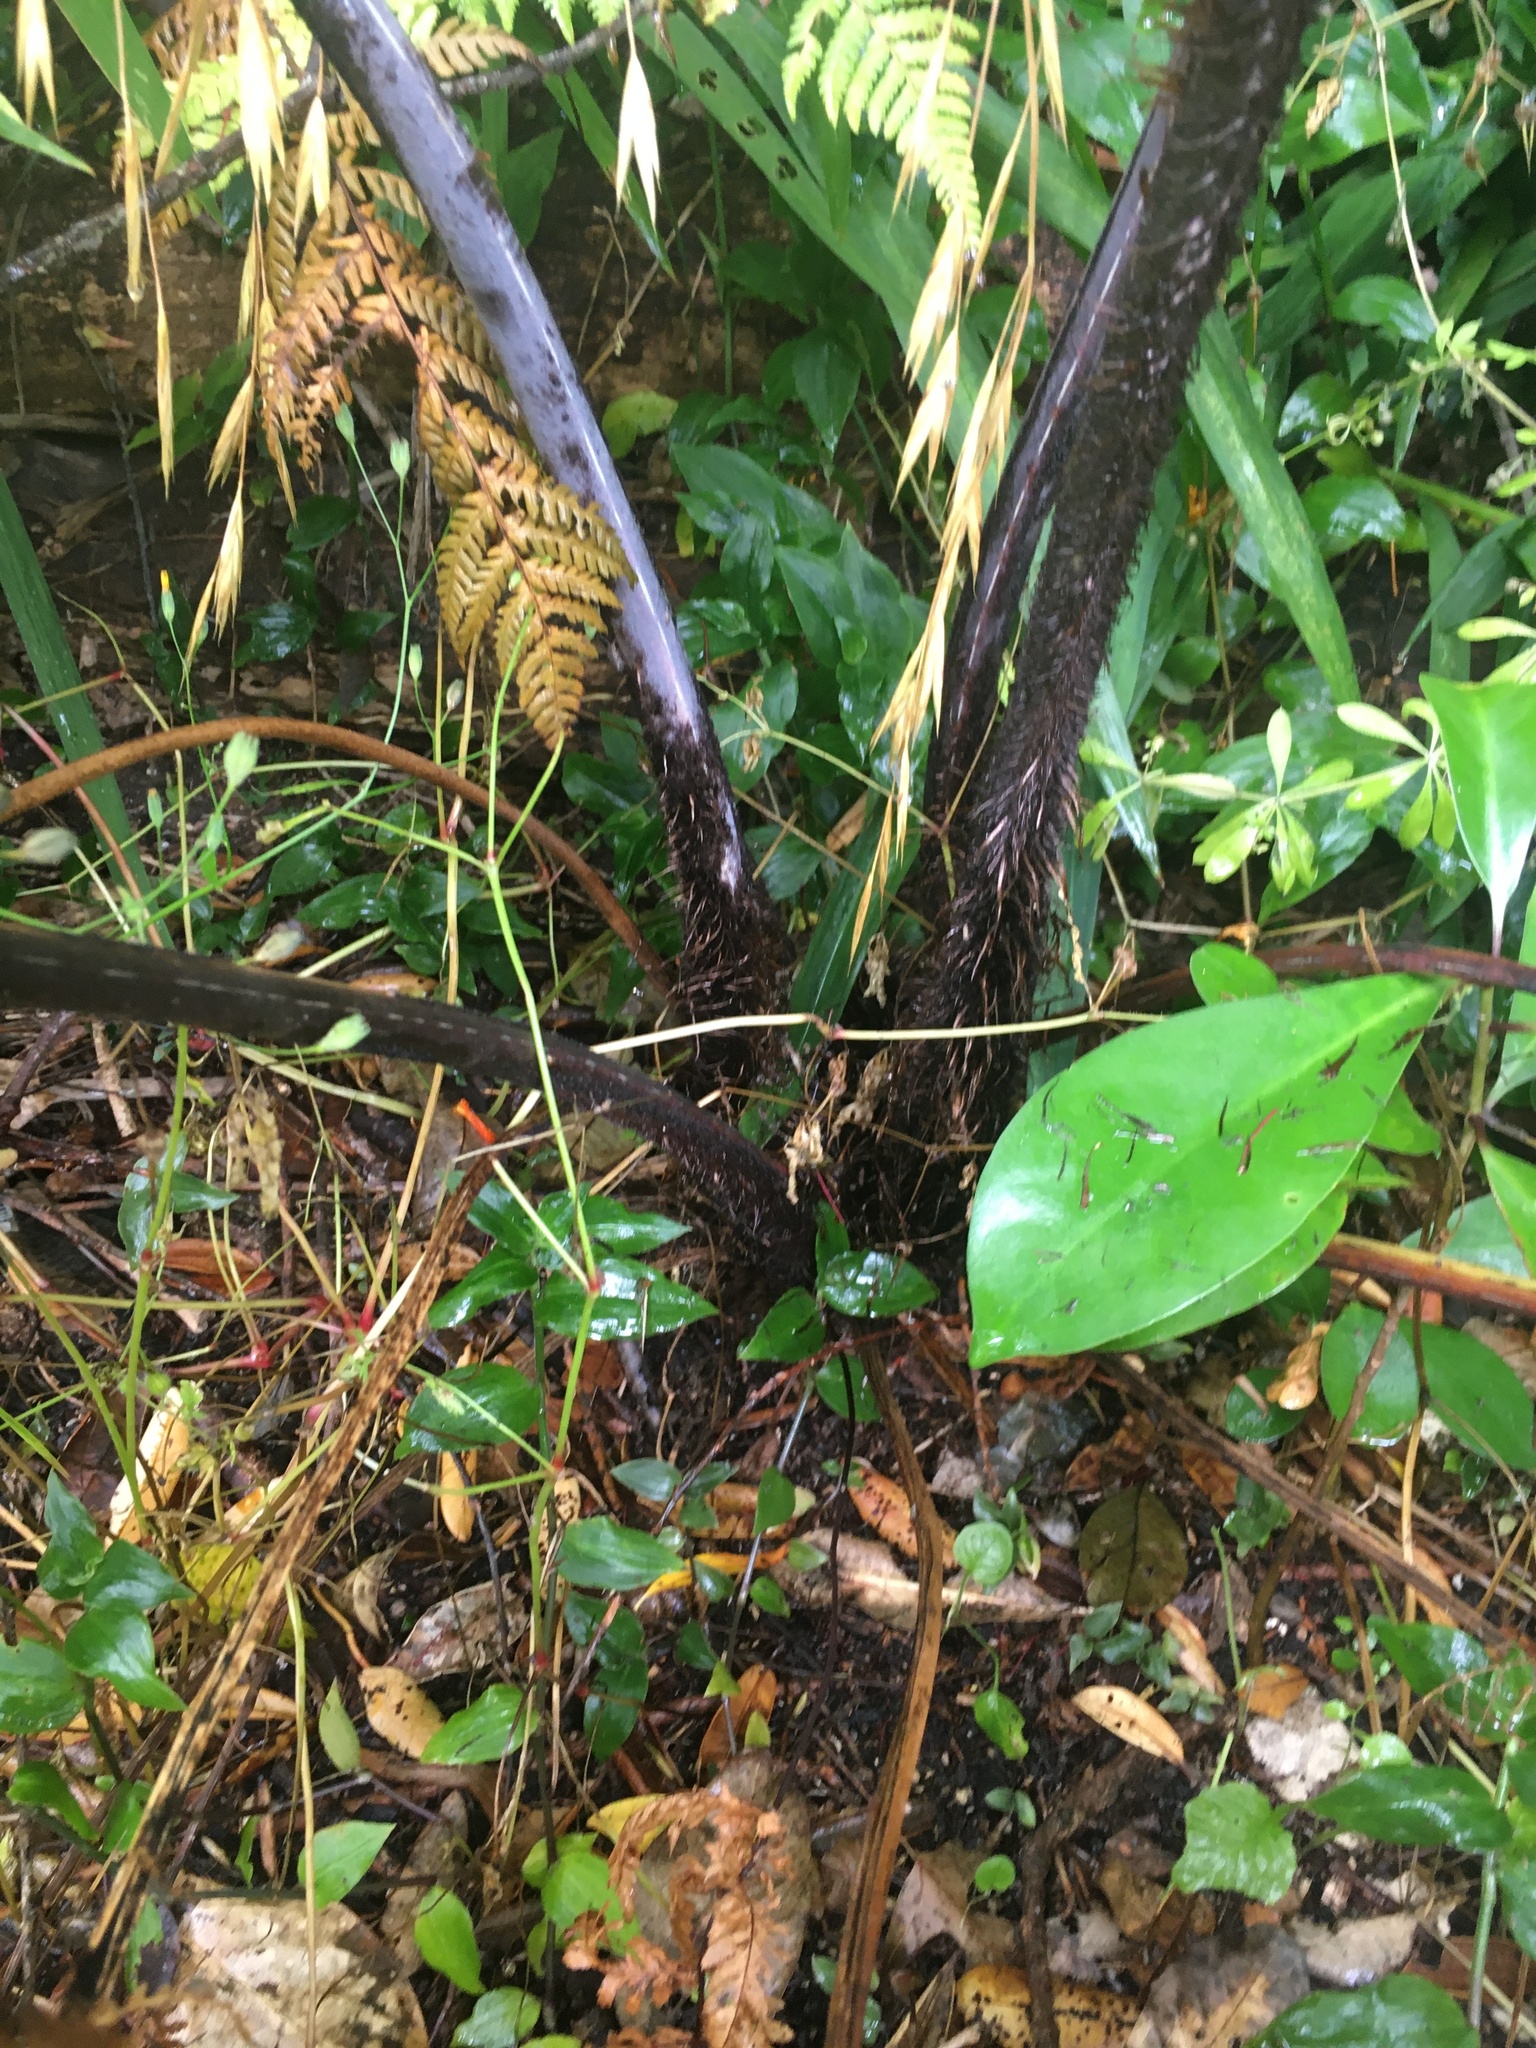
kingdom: Plantae
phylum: Tracheophyta
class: Polypodiopsida
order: Cyatheales
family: Cyatheaceae
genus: Sphaeropteris
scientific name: Sphaeropteris medullaris
